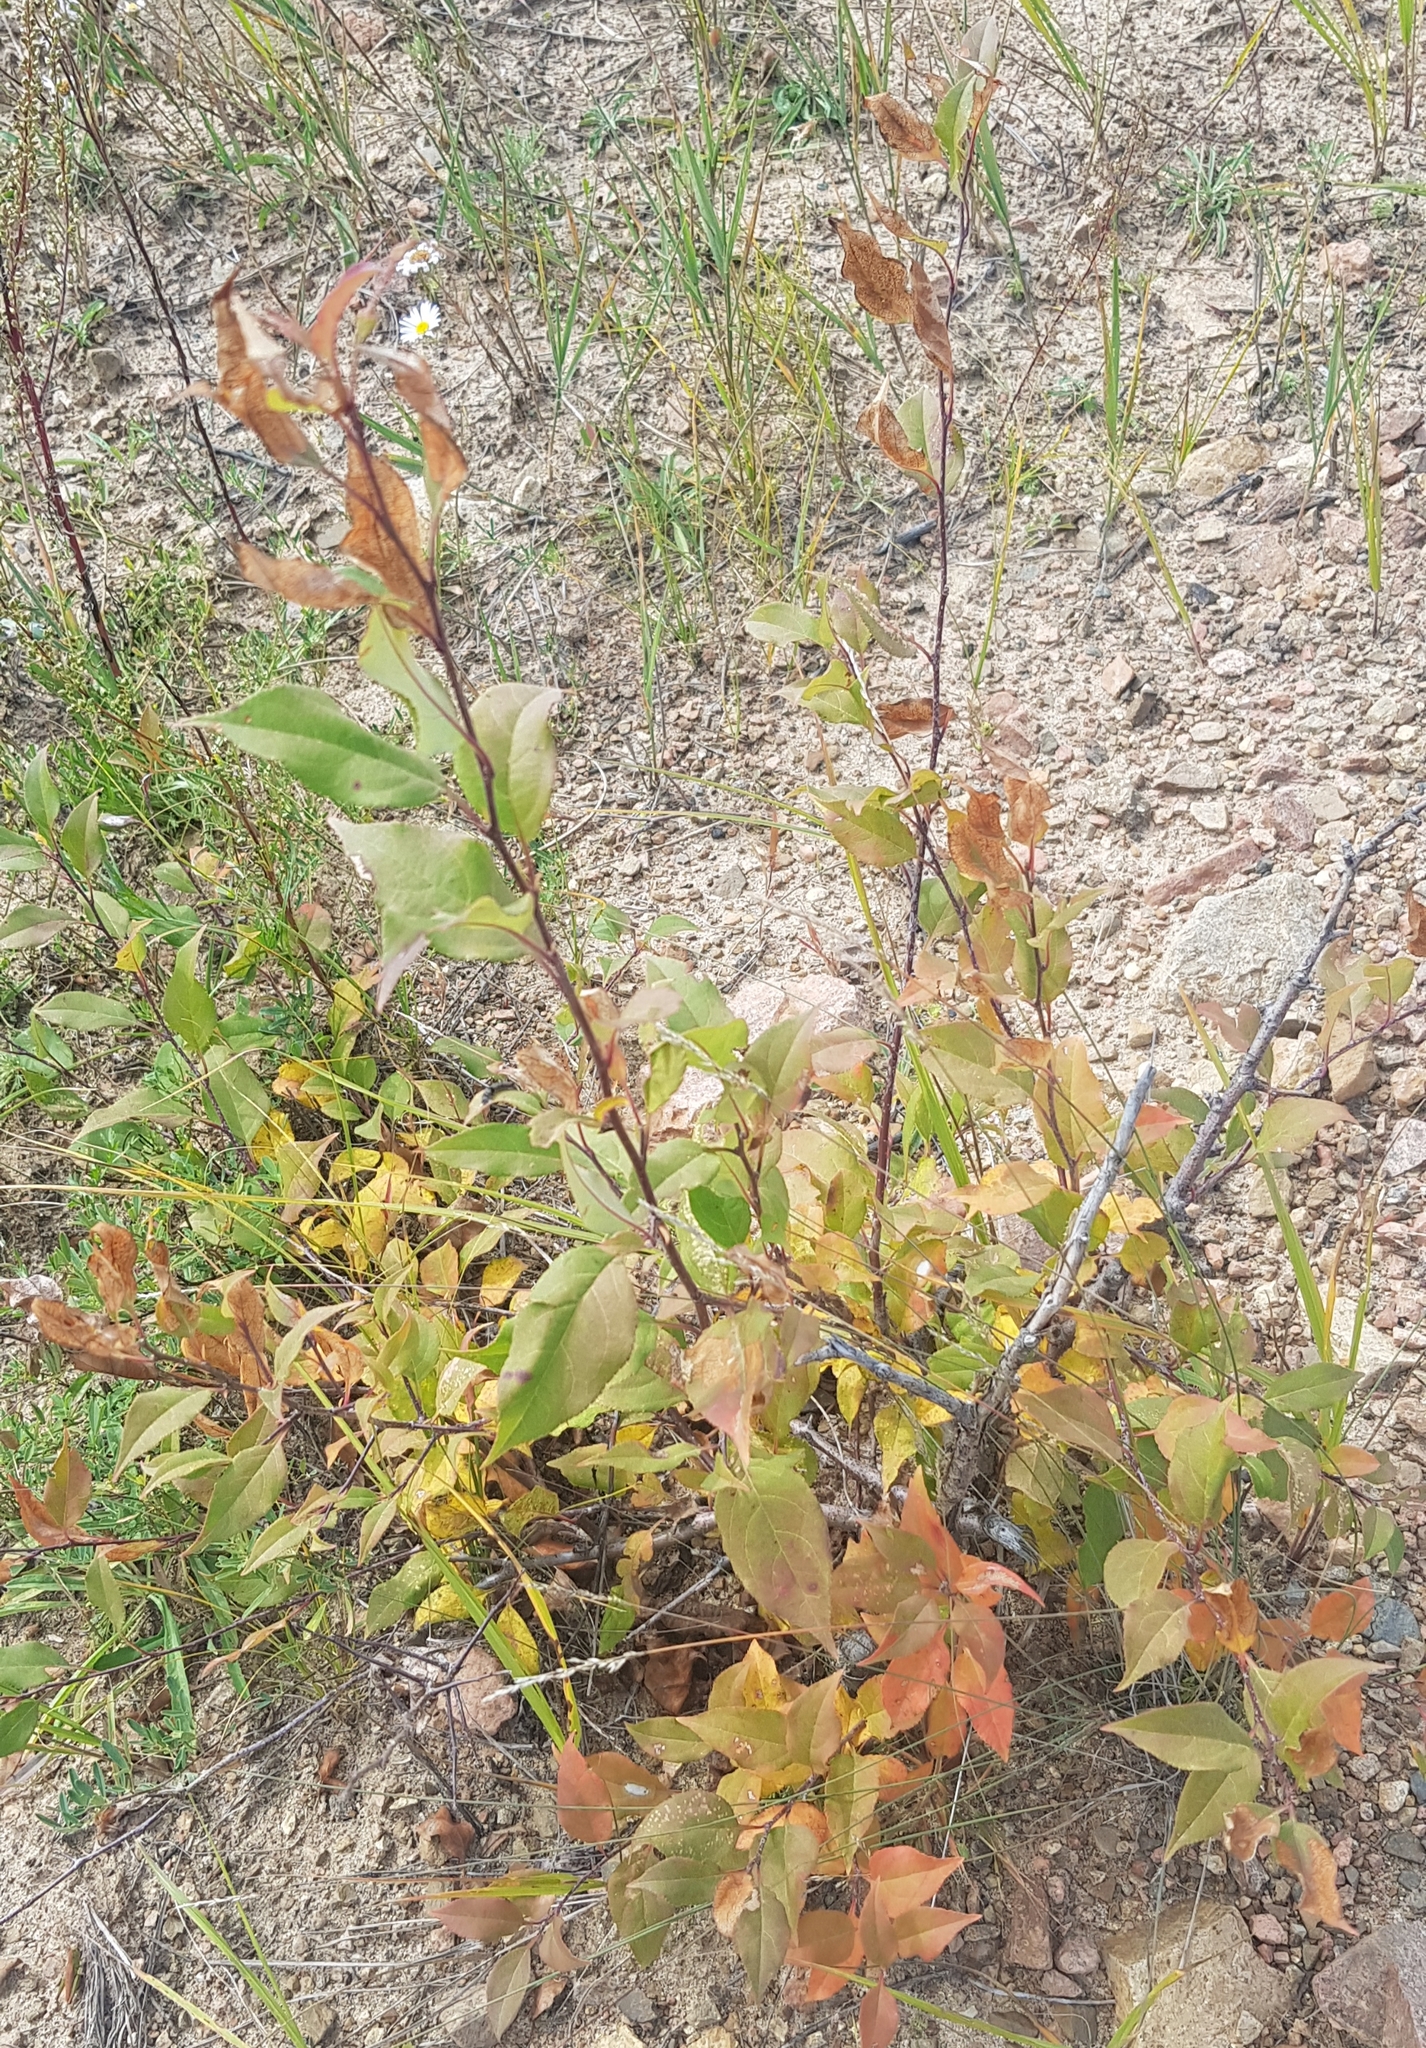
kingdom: Plantae
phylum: Tracheophyta
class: Magnoliopsida
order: Rosales
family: Rosaceae
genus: Spiraea
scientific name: Spiraea salicifolia
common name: Bridewort
